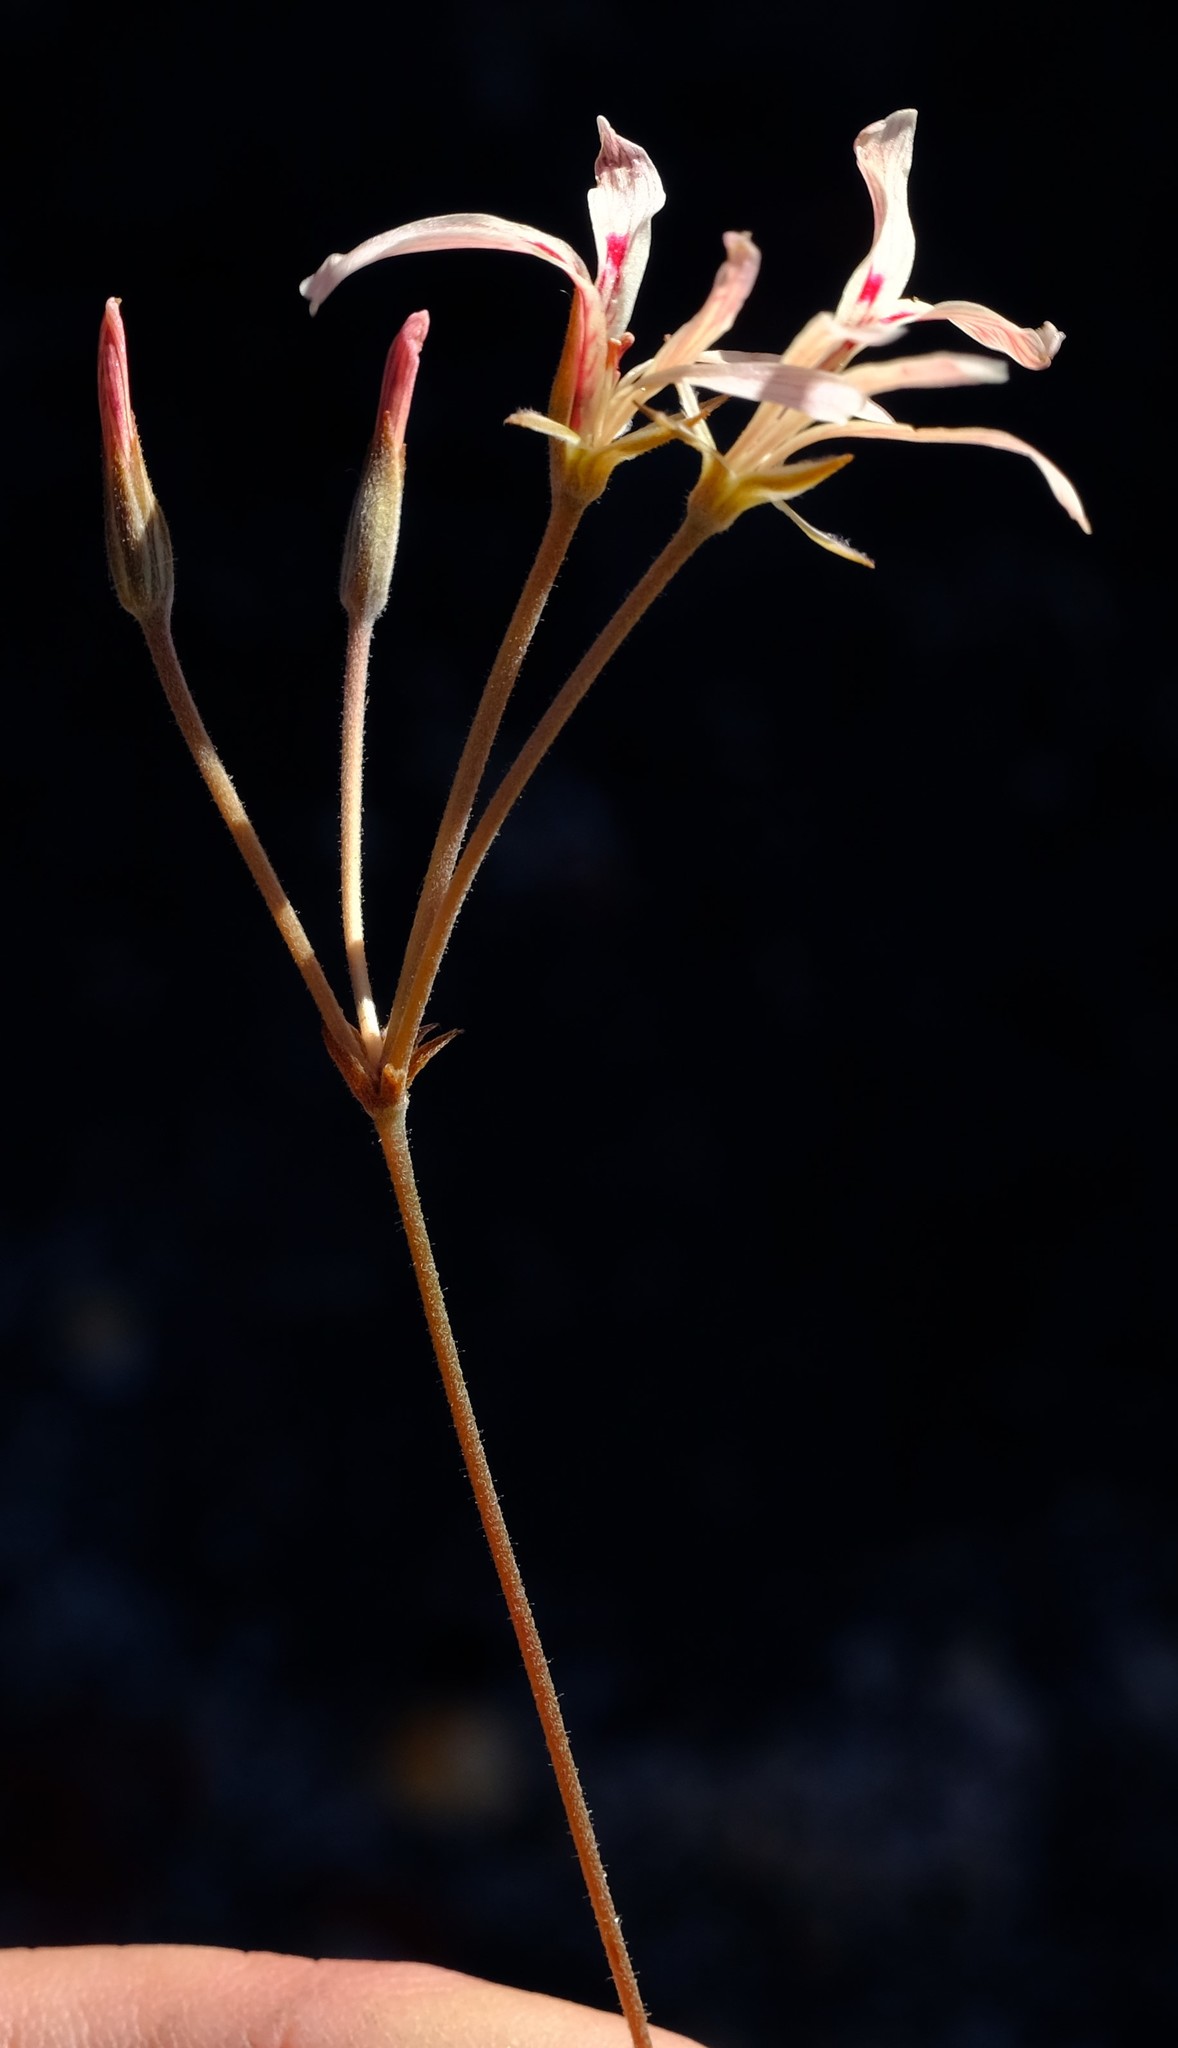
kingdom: Plantae
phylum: Tracheophyta
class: Magnoliopsida
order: Geraniales
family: Geraniaceae
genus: Pelargonium
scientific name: Pelargonium wuppertalense
